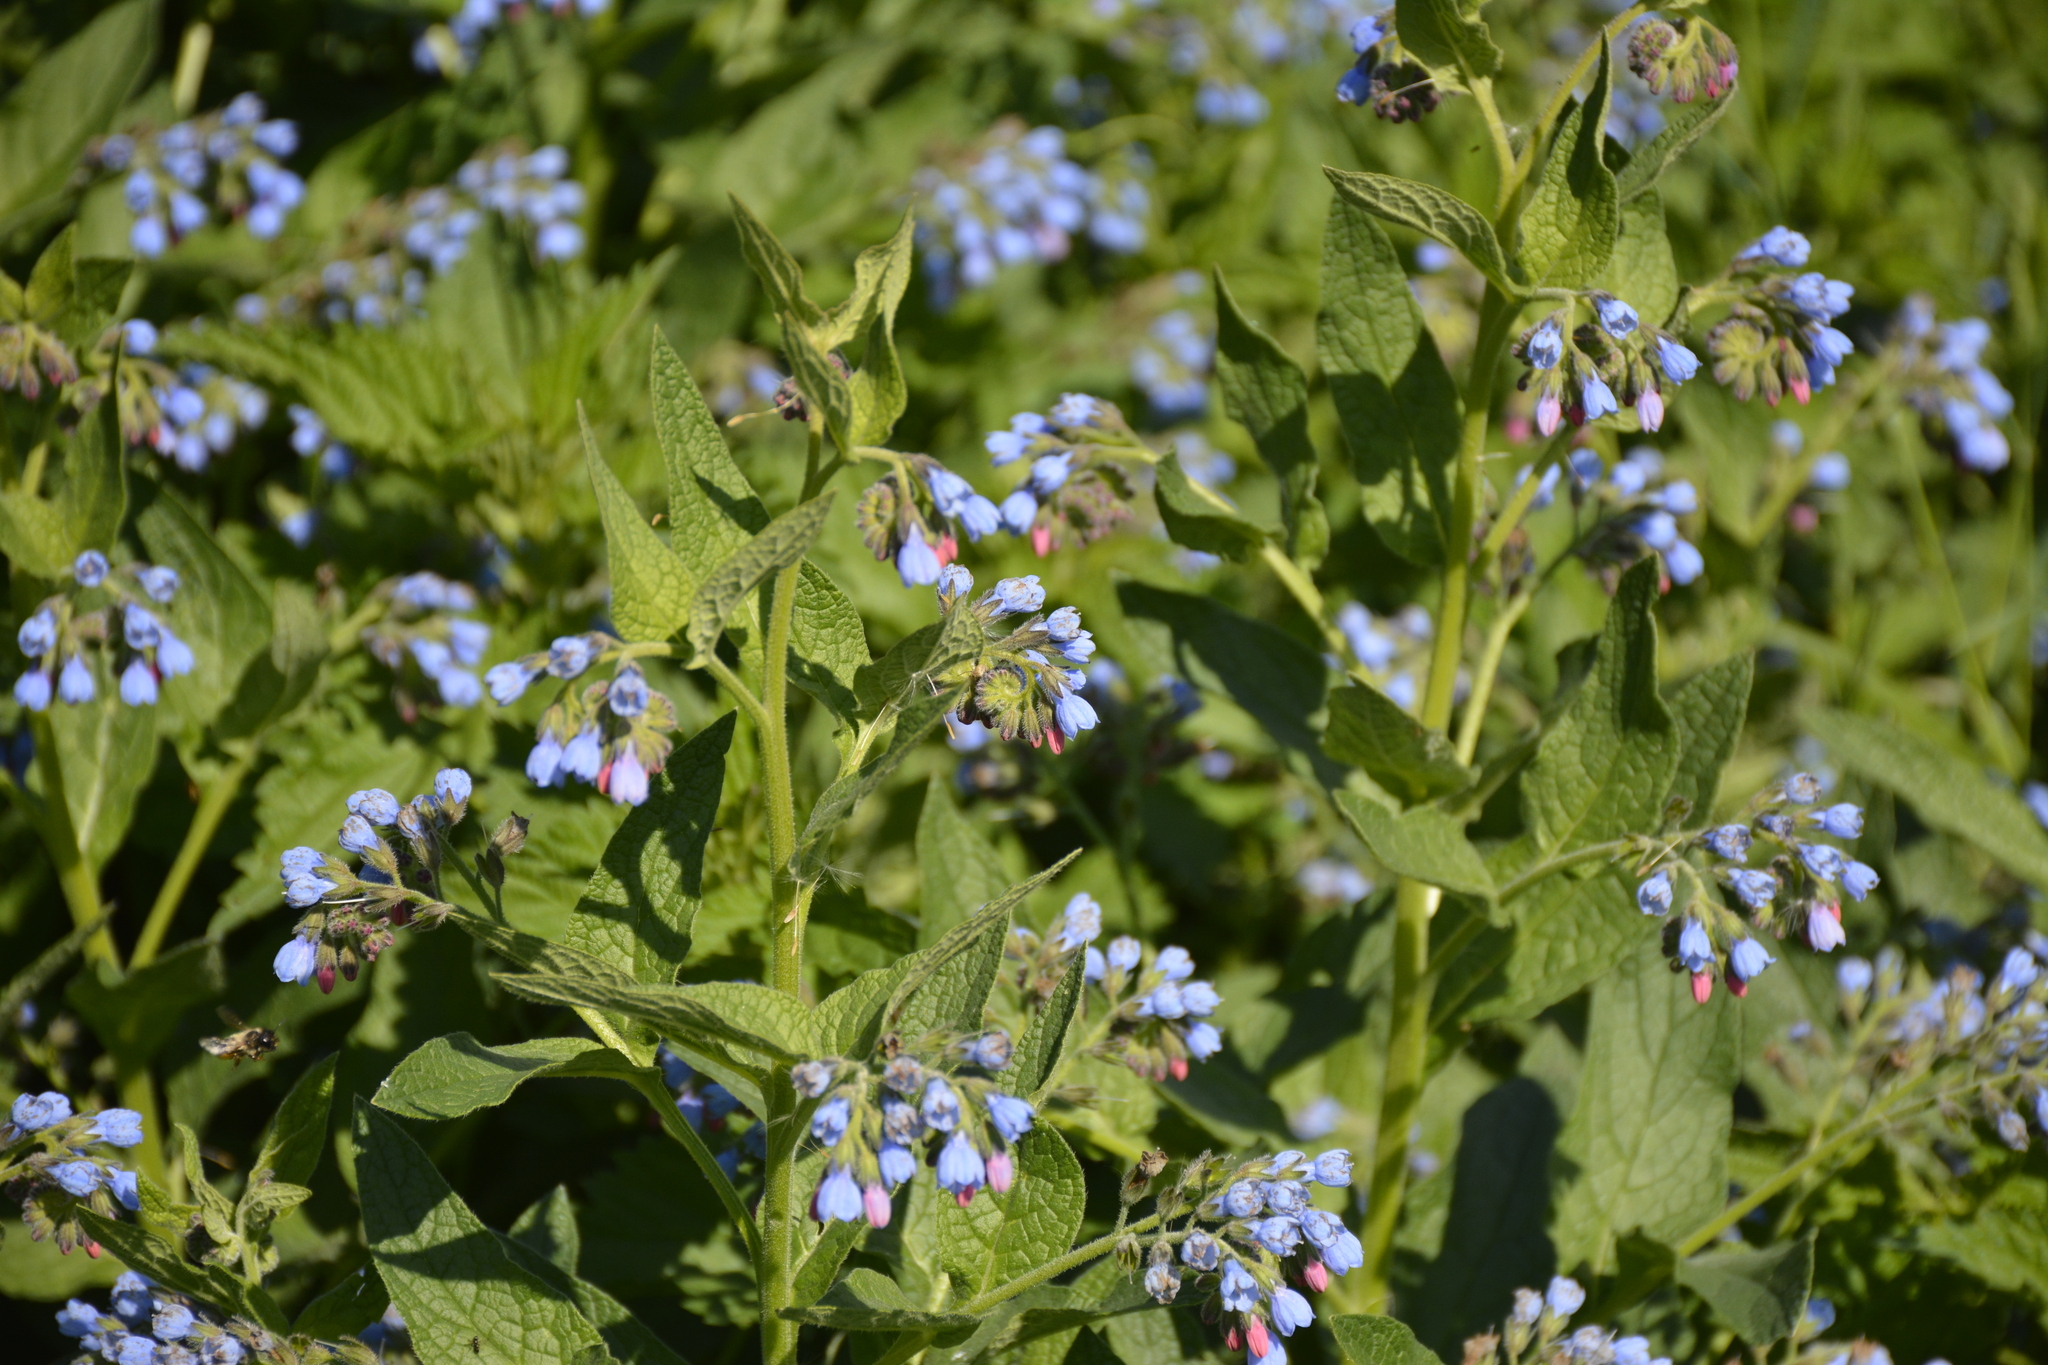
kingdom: Plantae
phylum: Tracheophyta
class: Magnoliopsida
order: Boraginales
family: Boraginaceae
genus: Symphytum
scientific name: Symphytum caucasicum
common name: Caucasian comfrey
